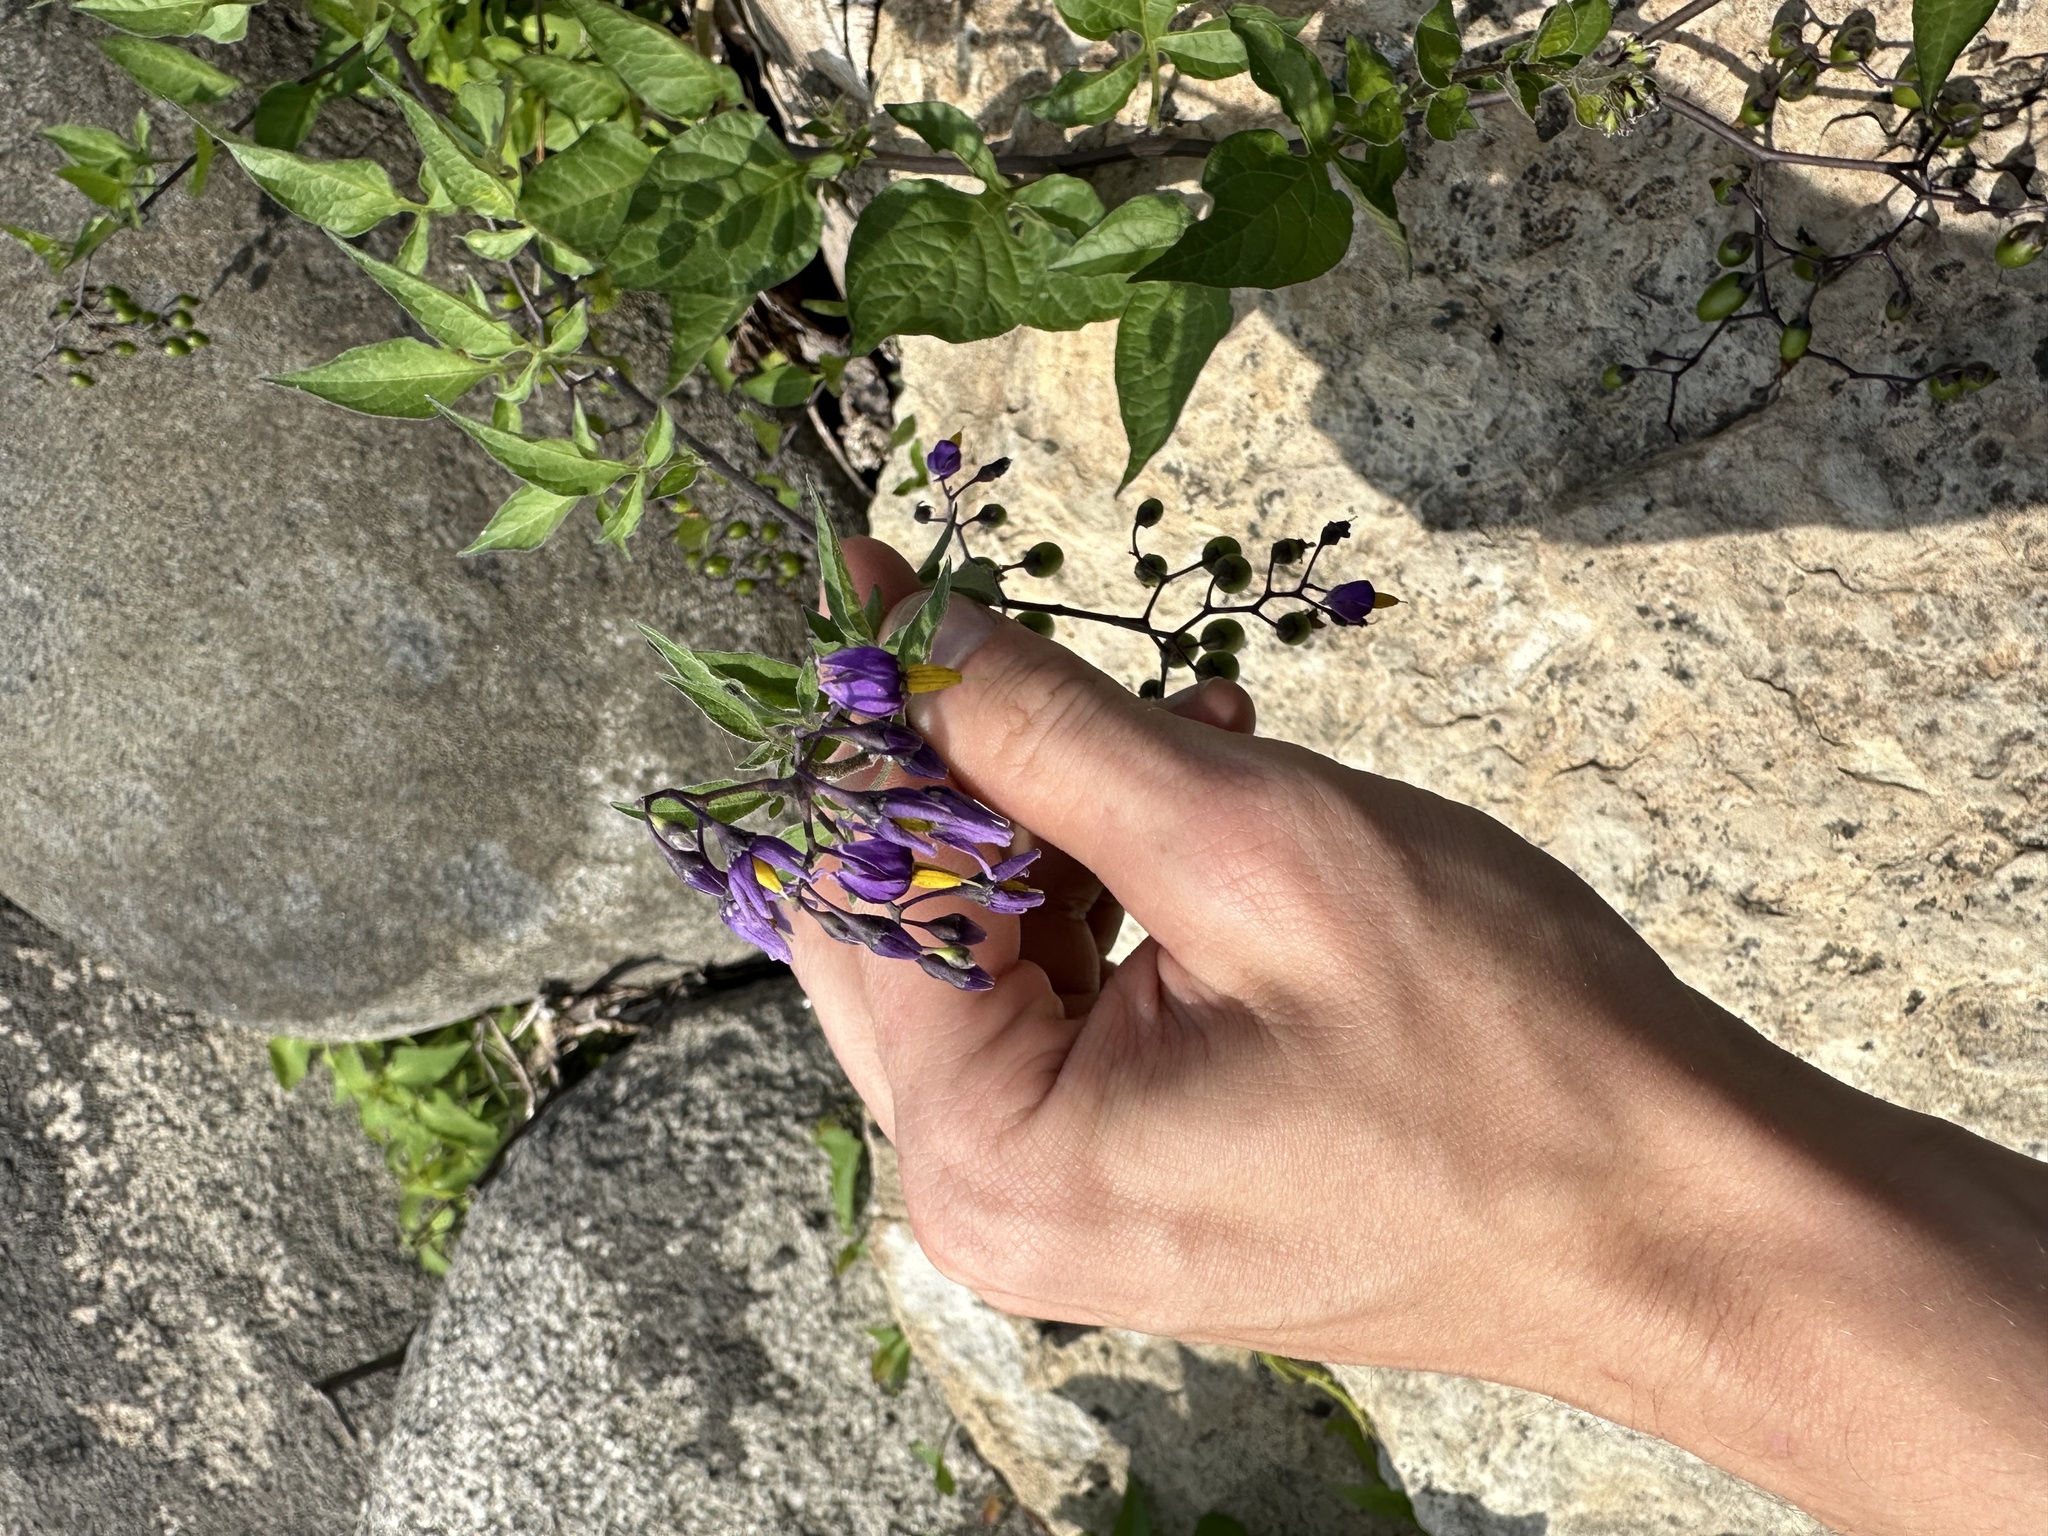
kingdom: Plantae
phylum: Tracheophyta
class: Magnoliopsida
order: Solanales
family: Solanaceae
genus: Solanum
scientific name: Solanum dulcamara
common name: Climbing nightshade
